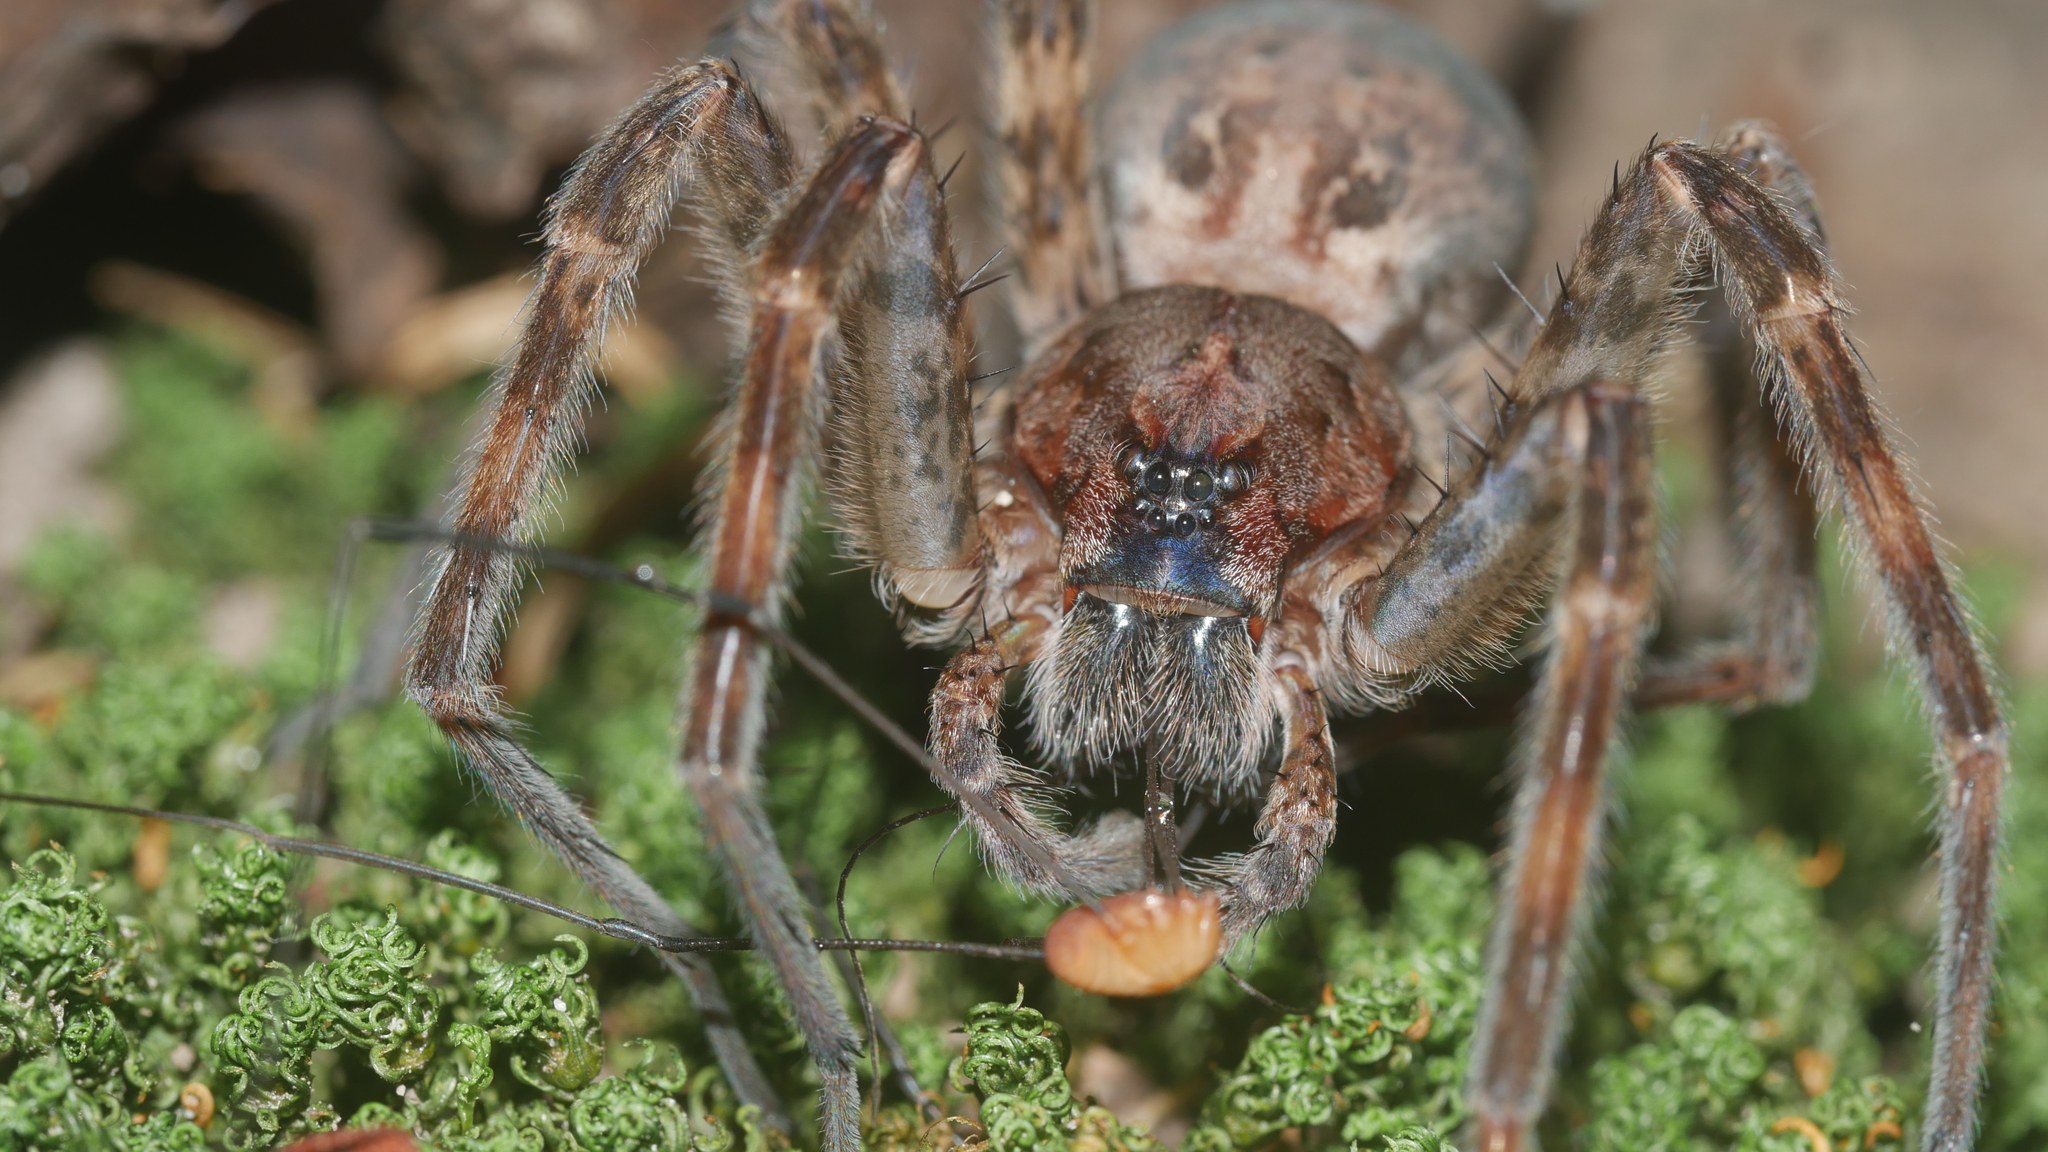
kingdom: Animalia
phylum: Arthropoda
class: Arachnida
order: Araneae
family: Pisauridae
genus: Dolomedes
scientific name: Dolomedes tenebrosus
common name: Dark fishing spider
